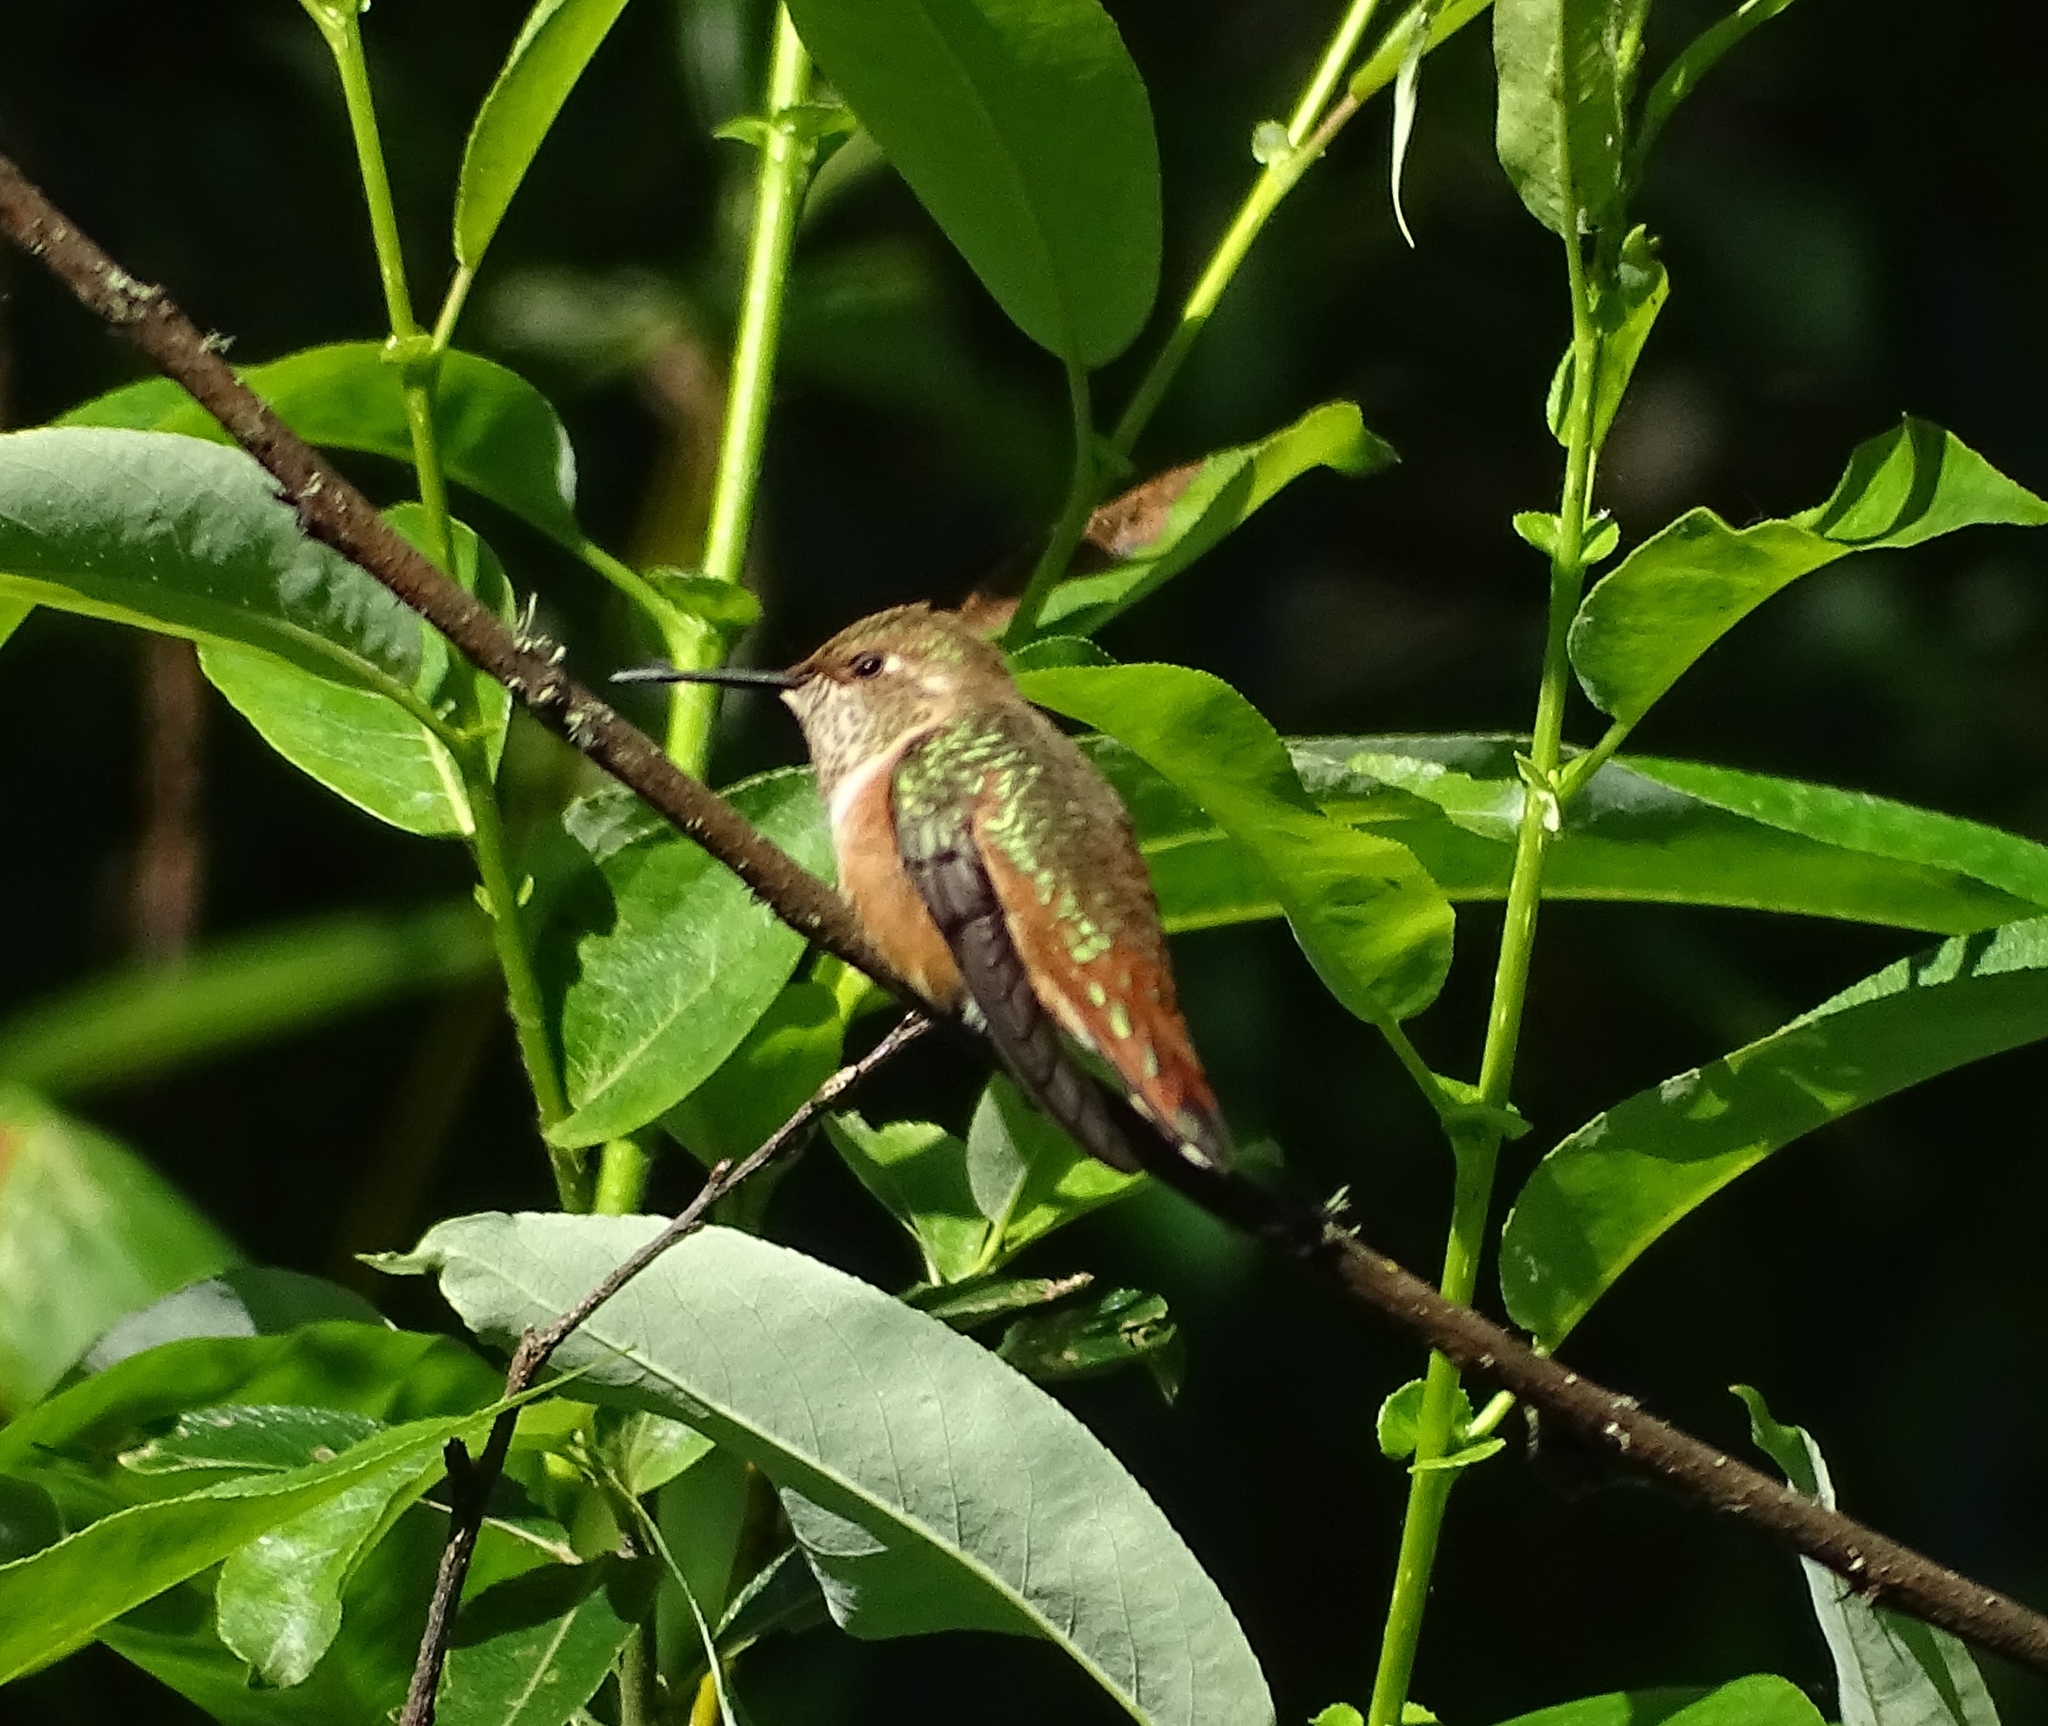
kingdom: Animalia
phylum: Chordata
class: Aves
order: Apodiformes
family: Trochilidae
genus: Selasphorus
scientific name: Selasphorus rufus
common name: Rufous hummingbird
